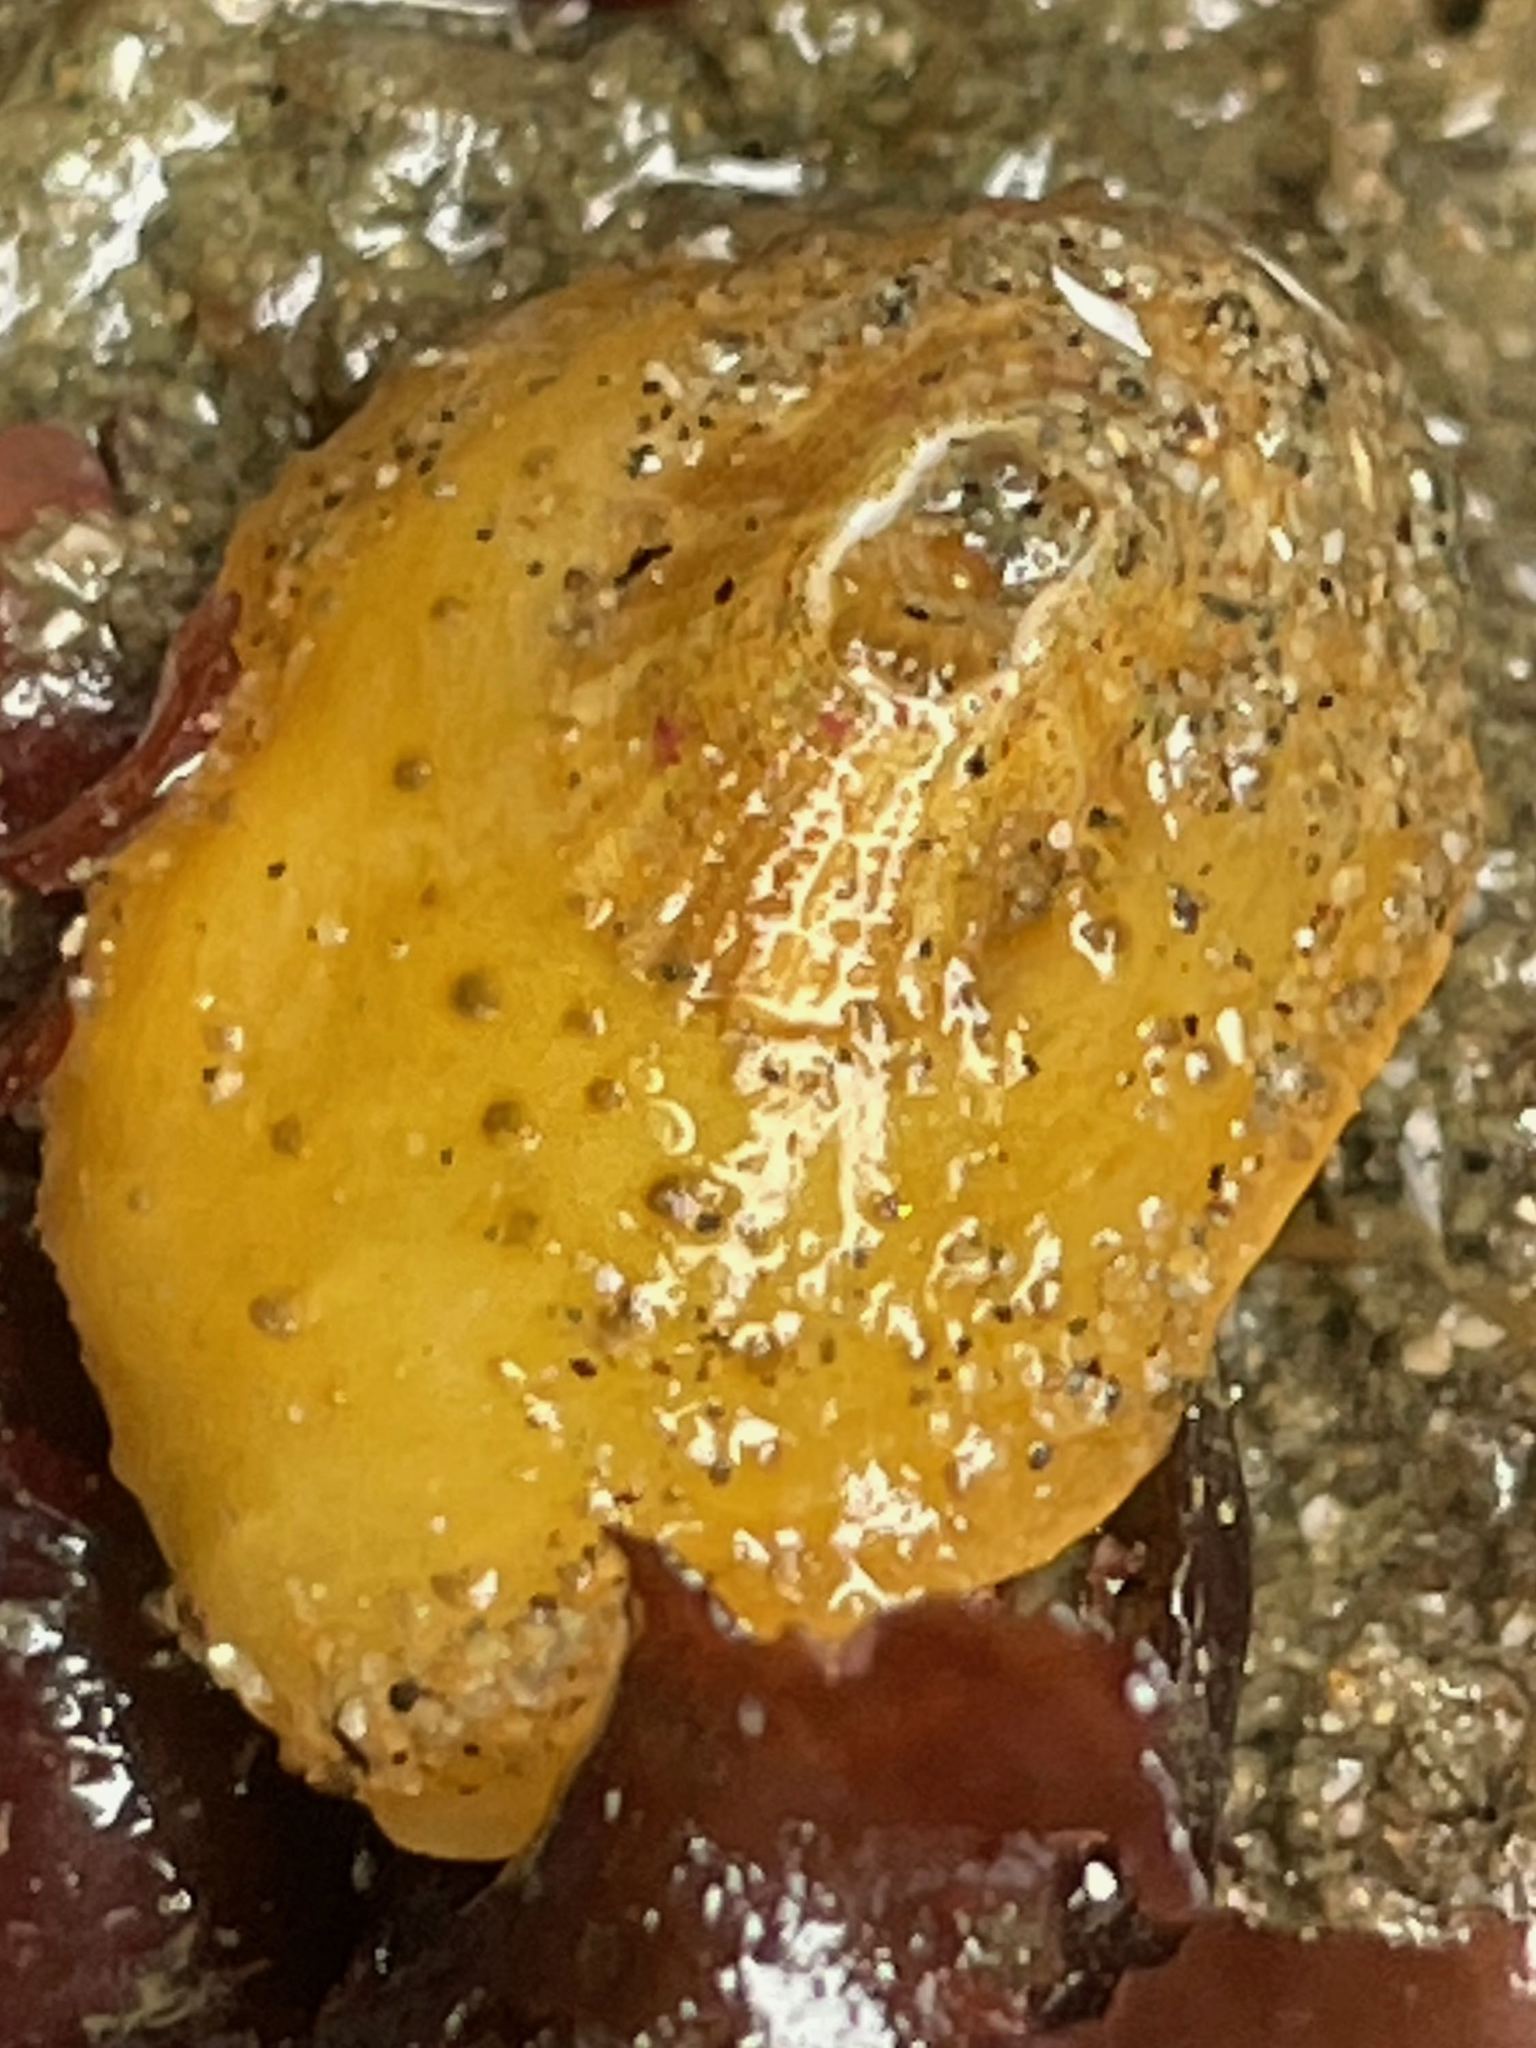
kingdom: Animalia
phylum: Mollusca
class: Gastropoda
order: Lepetellida
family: Fissurellidae
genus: Fissurellidea
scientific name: Fissurellidea bimaculata
